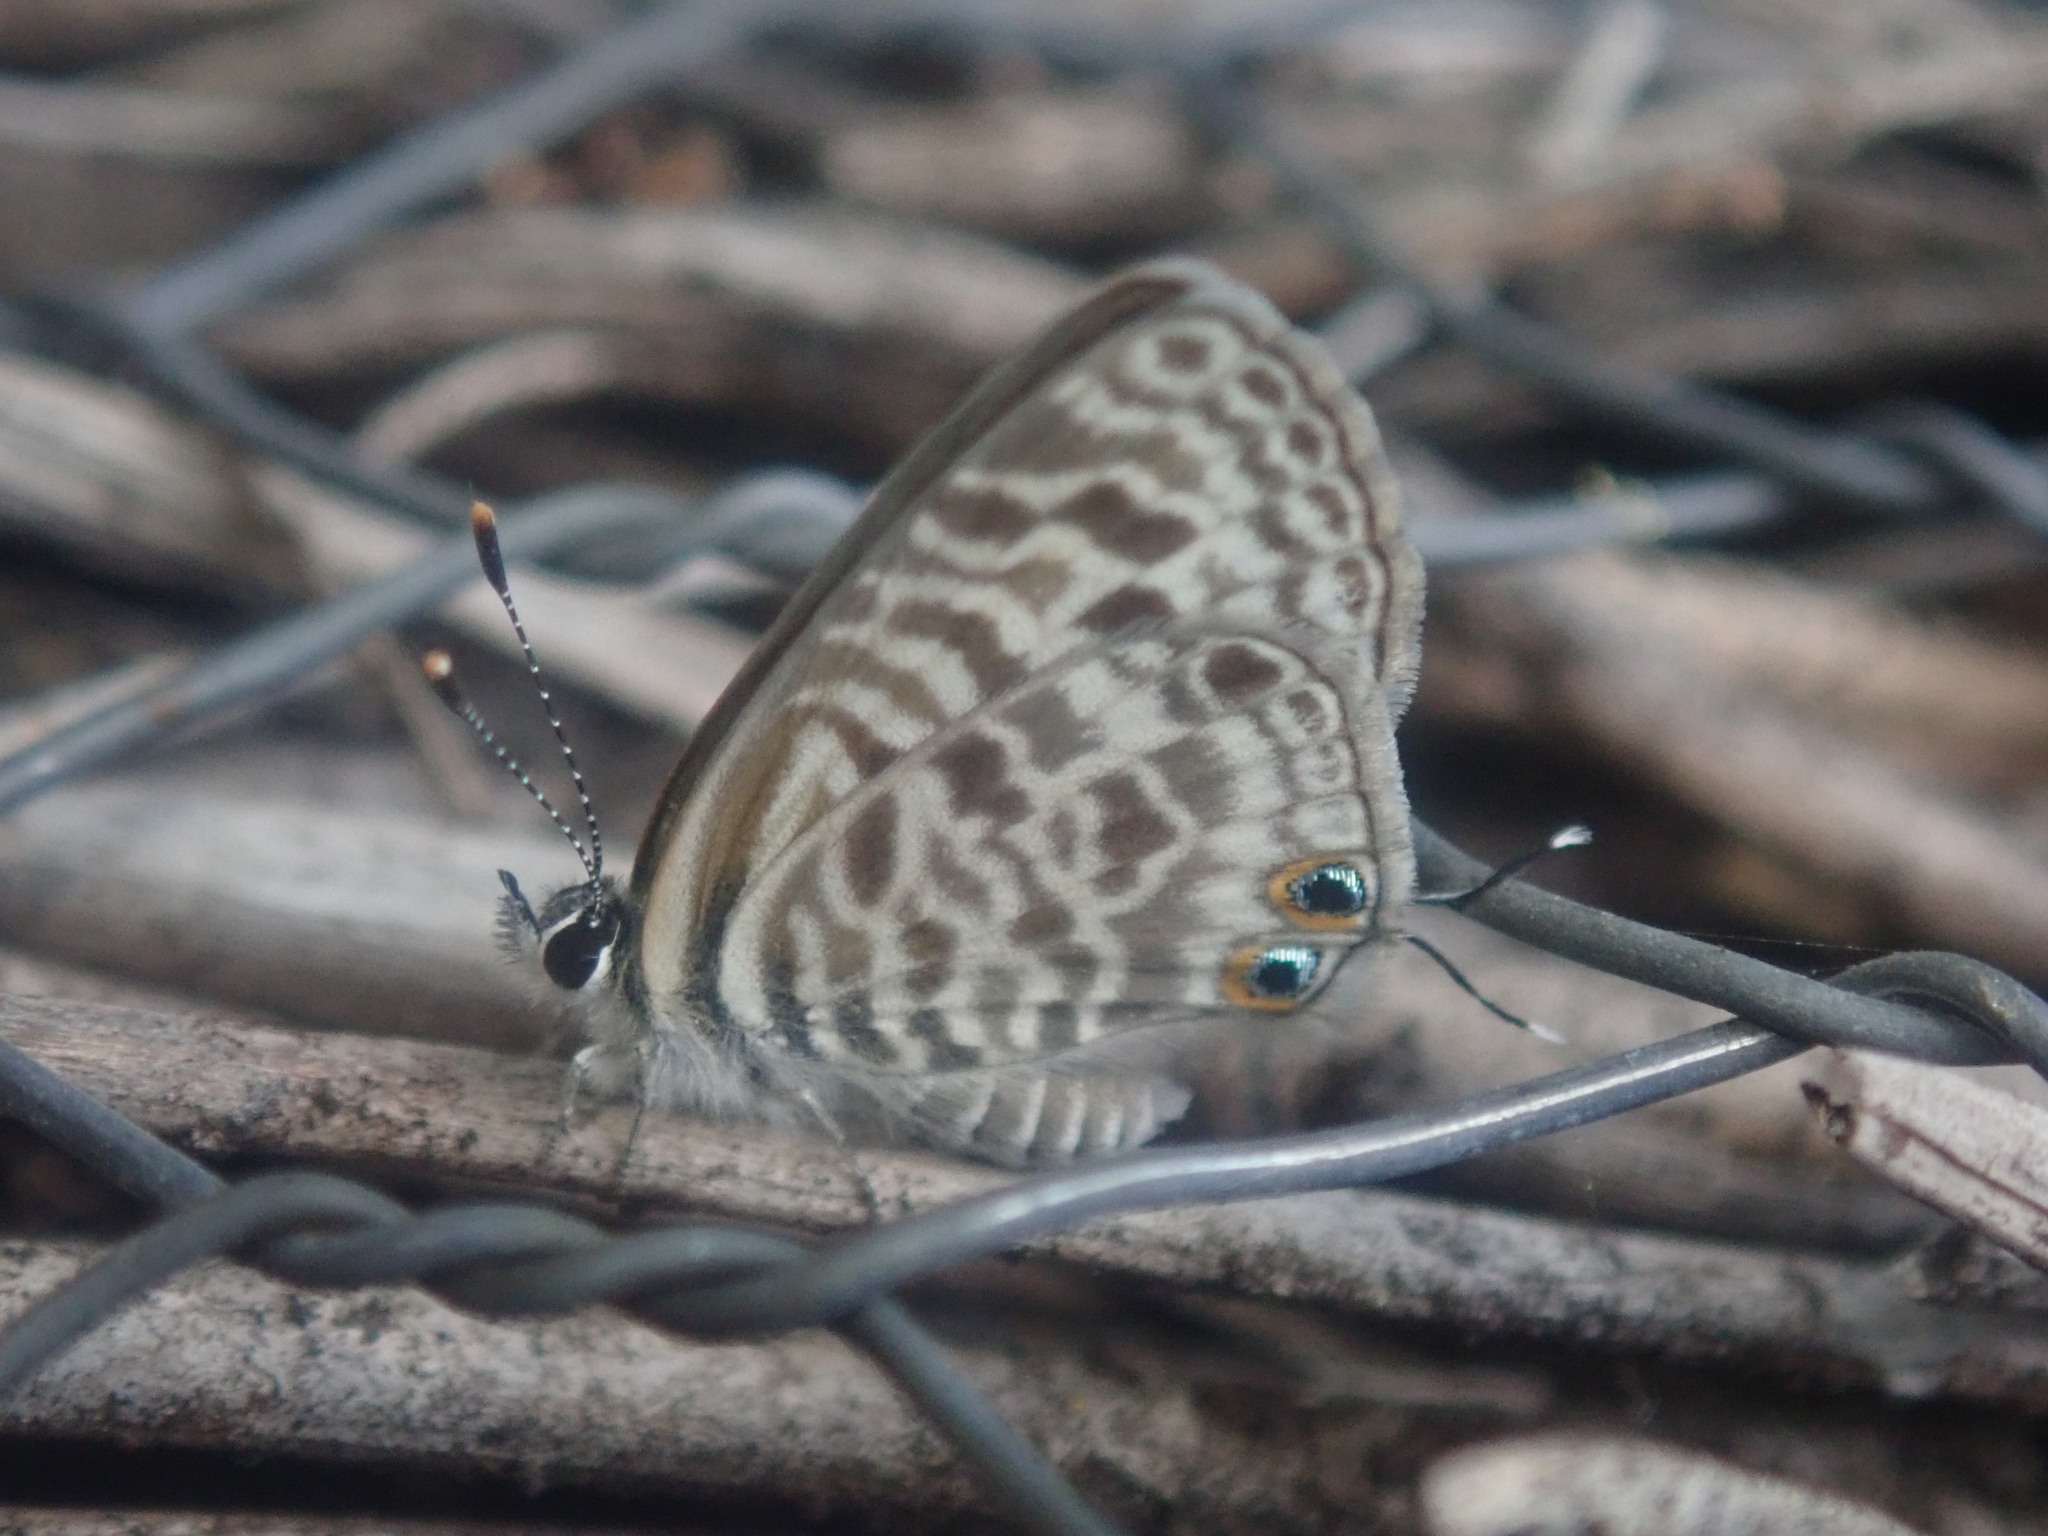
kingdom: Animalia
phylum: Arthropoda
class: Insecta
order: Lepidoptera
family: Lycaenidae
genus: Leptotes
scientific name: Leptotes
